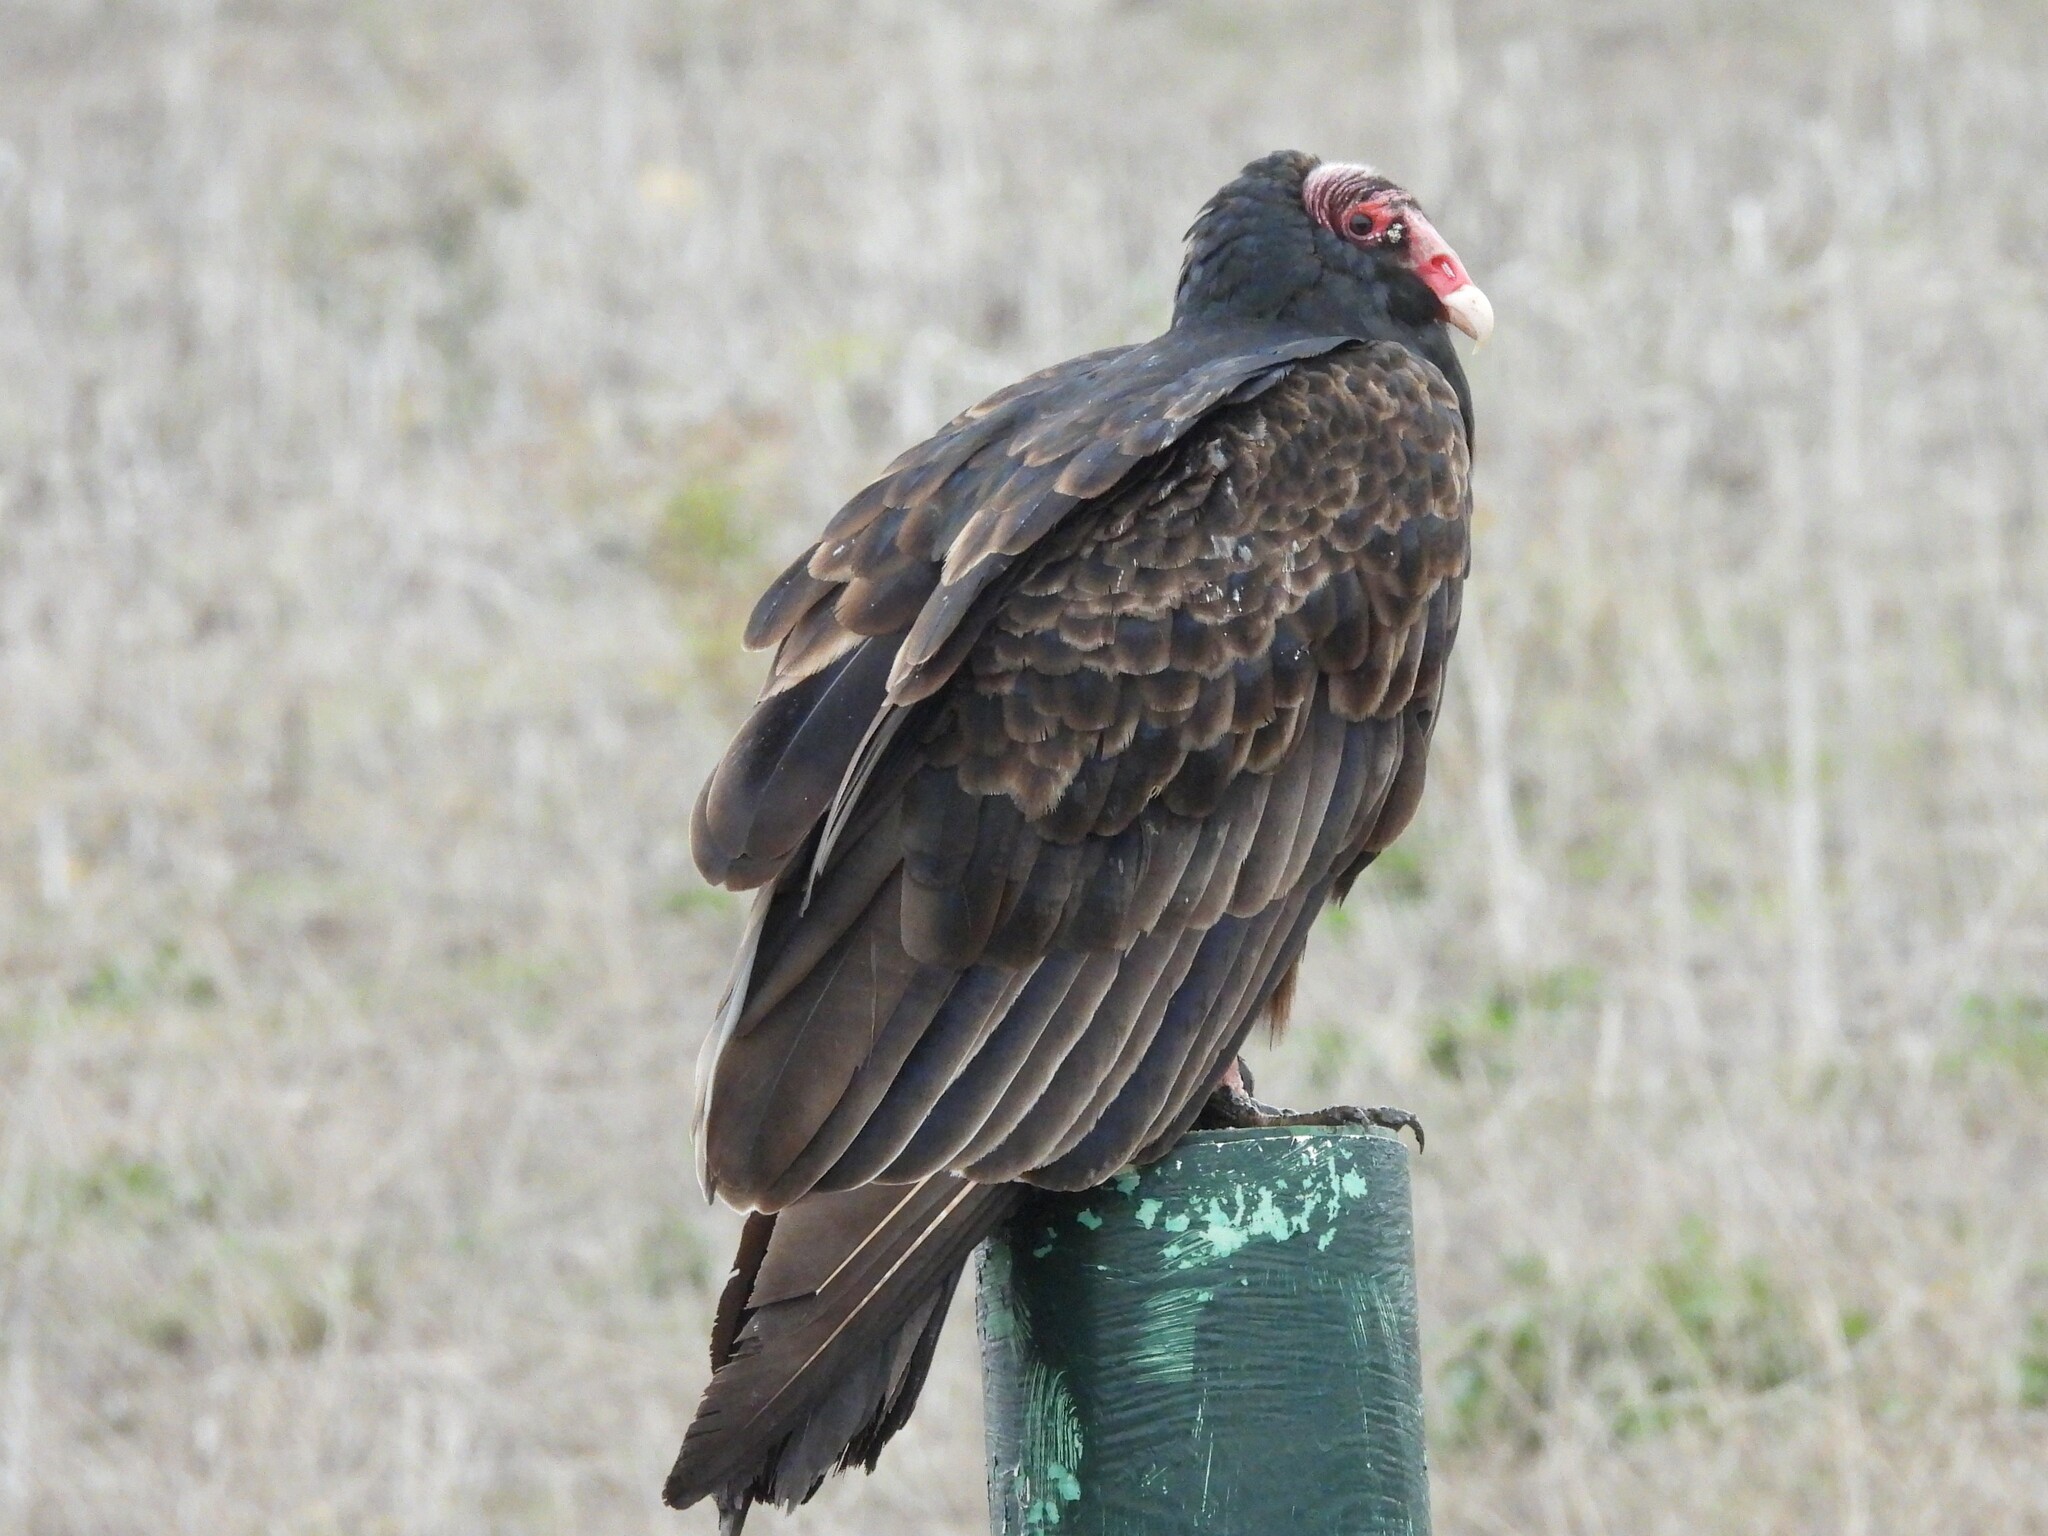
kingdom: Animalia
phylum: Chordata
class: Aves
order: Accipitriformes
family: Cathartidae
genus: Cathartes
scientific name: Cathartes aura
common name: Turkey vulture
